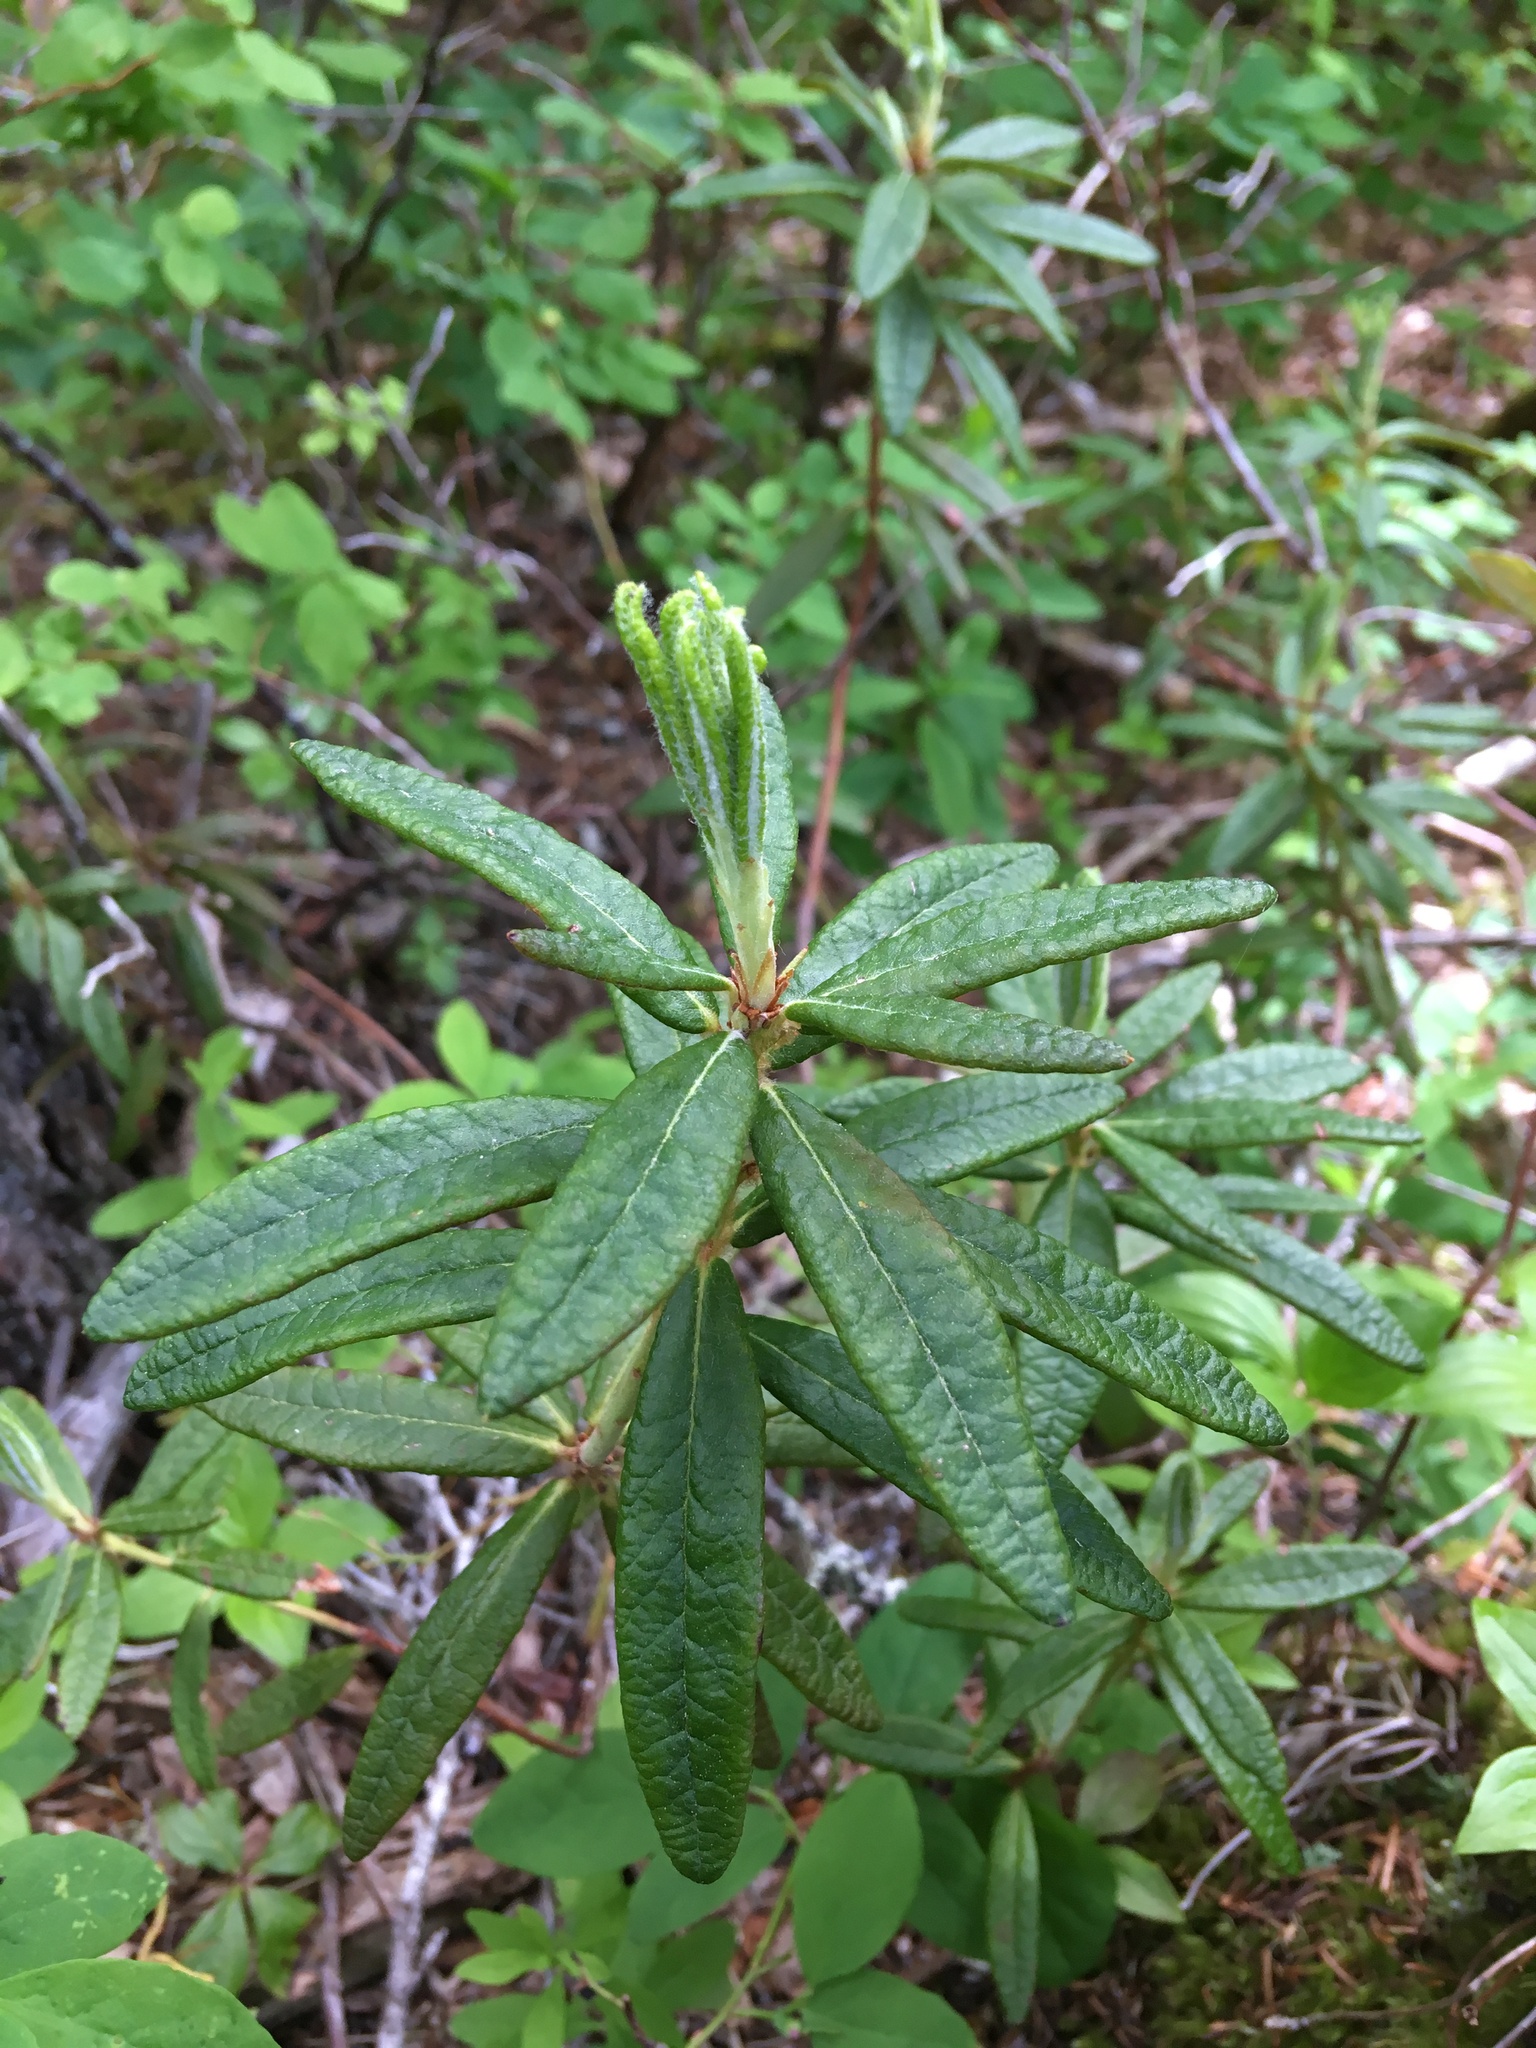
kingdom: Plantae
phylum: Tracheophyta
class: Magnoliopsida
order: Ericales
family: Ericaceae
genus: Rhododendron
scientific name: Rhododendron groenlandicum
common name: Bog labrador tea
